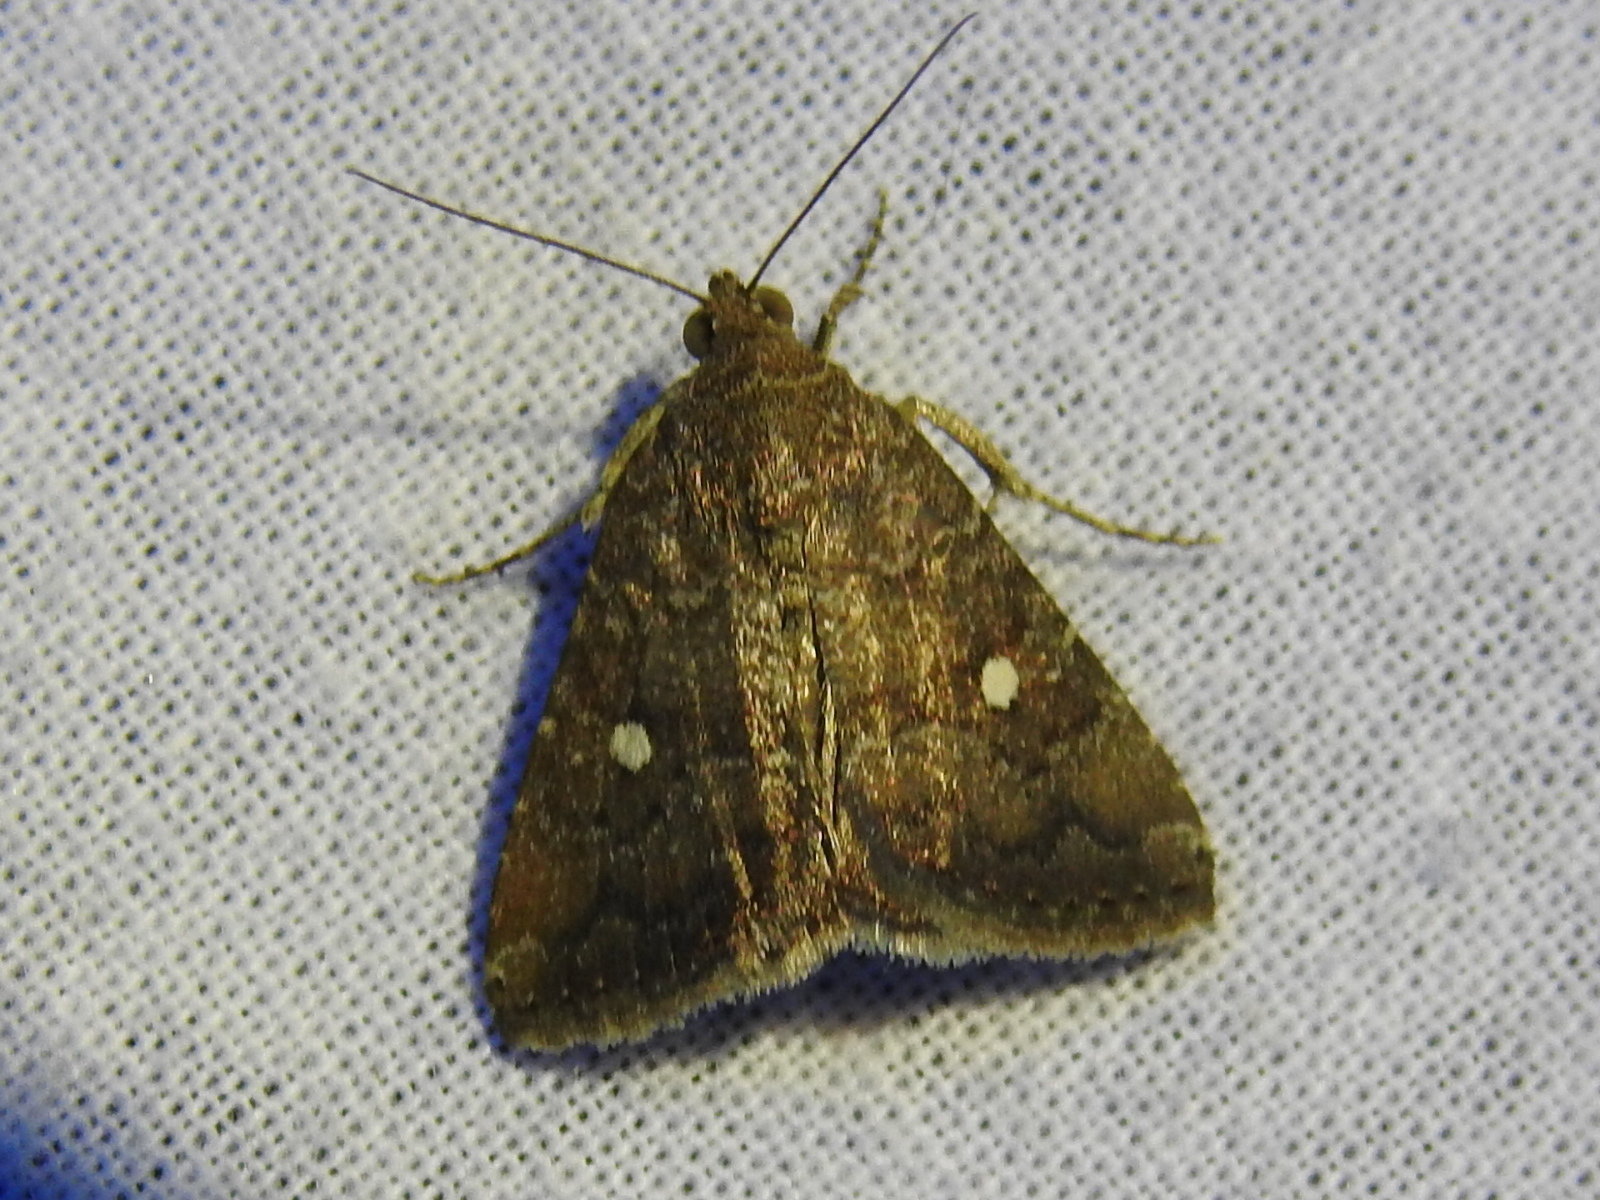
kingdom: Animalia
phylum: Arthropoda
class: Insecta
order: Lepidoptera
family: Noctuidae
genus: Amyna
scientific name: Amyna stricta
